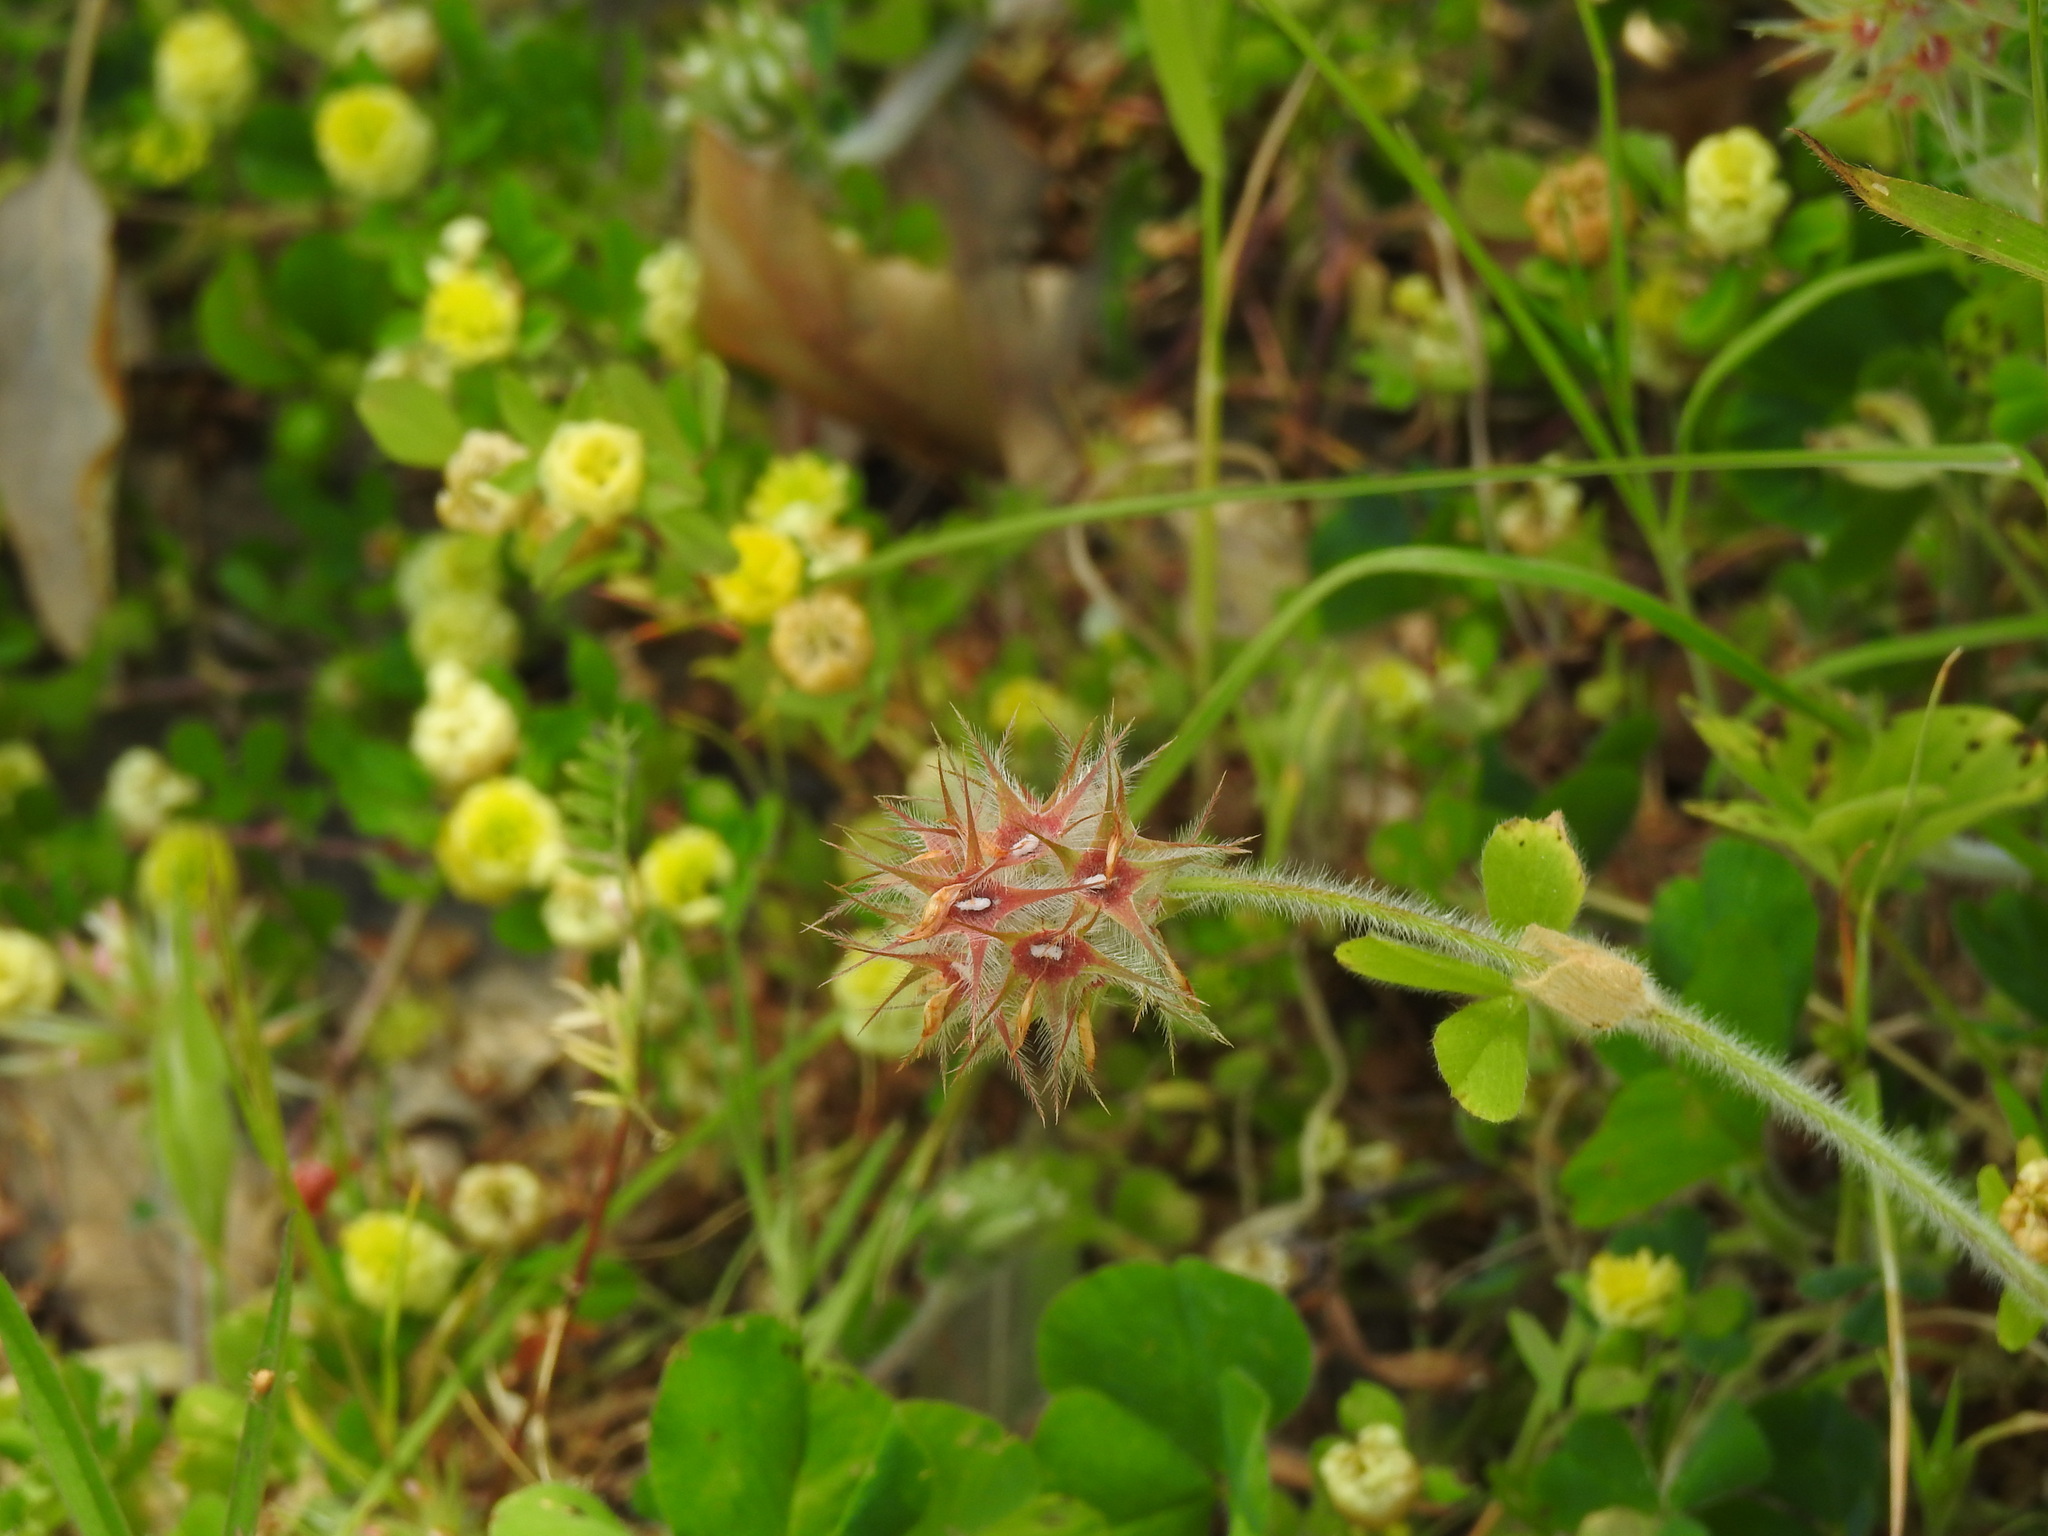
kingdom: Plantae
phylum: Tracheophyta
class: Magnoliopsida
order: Fabales
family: Fabaceae
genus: Trifolium
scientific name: Trifolium stellatum
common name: Starry clover
